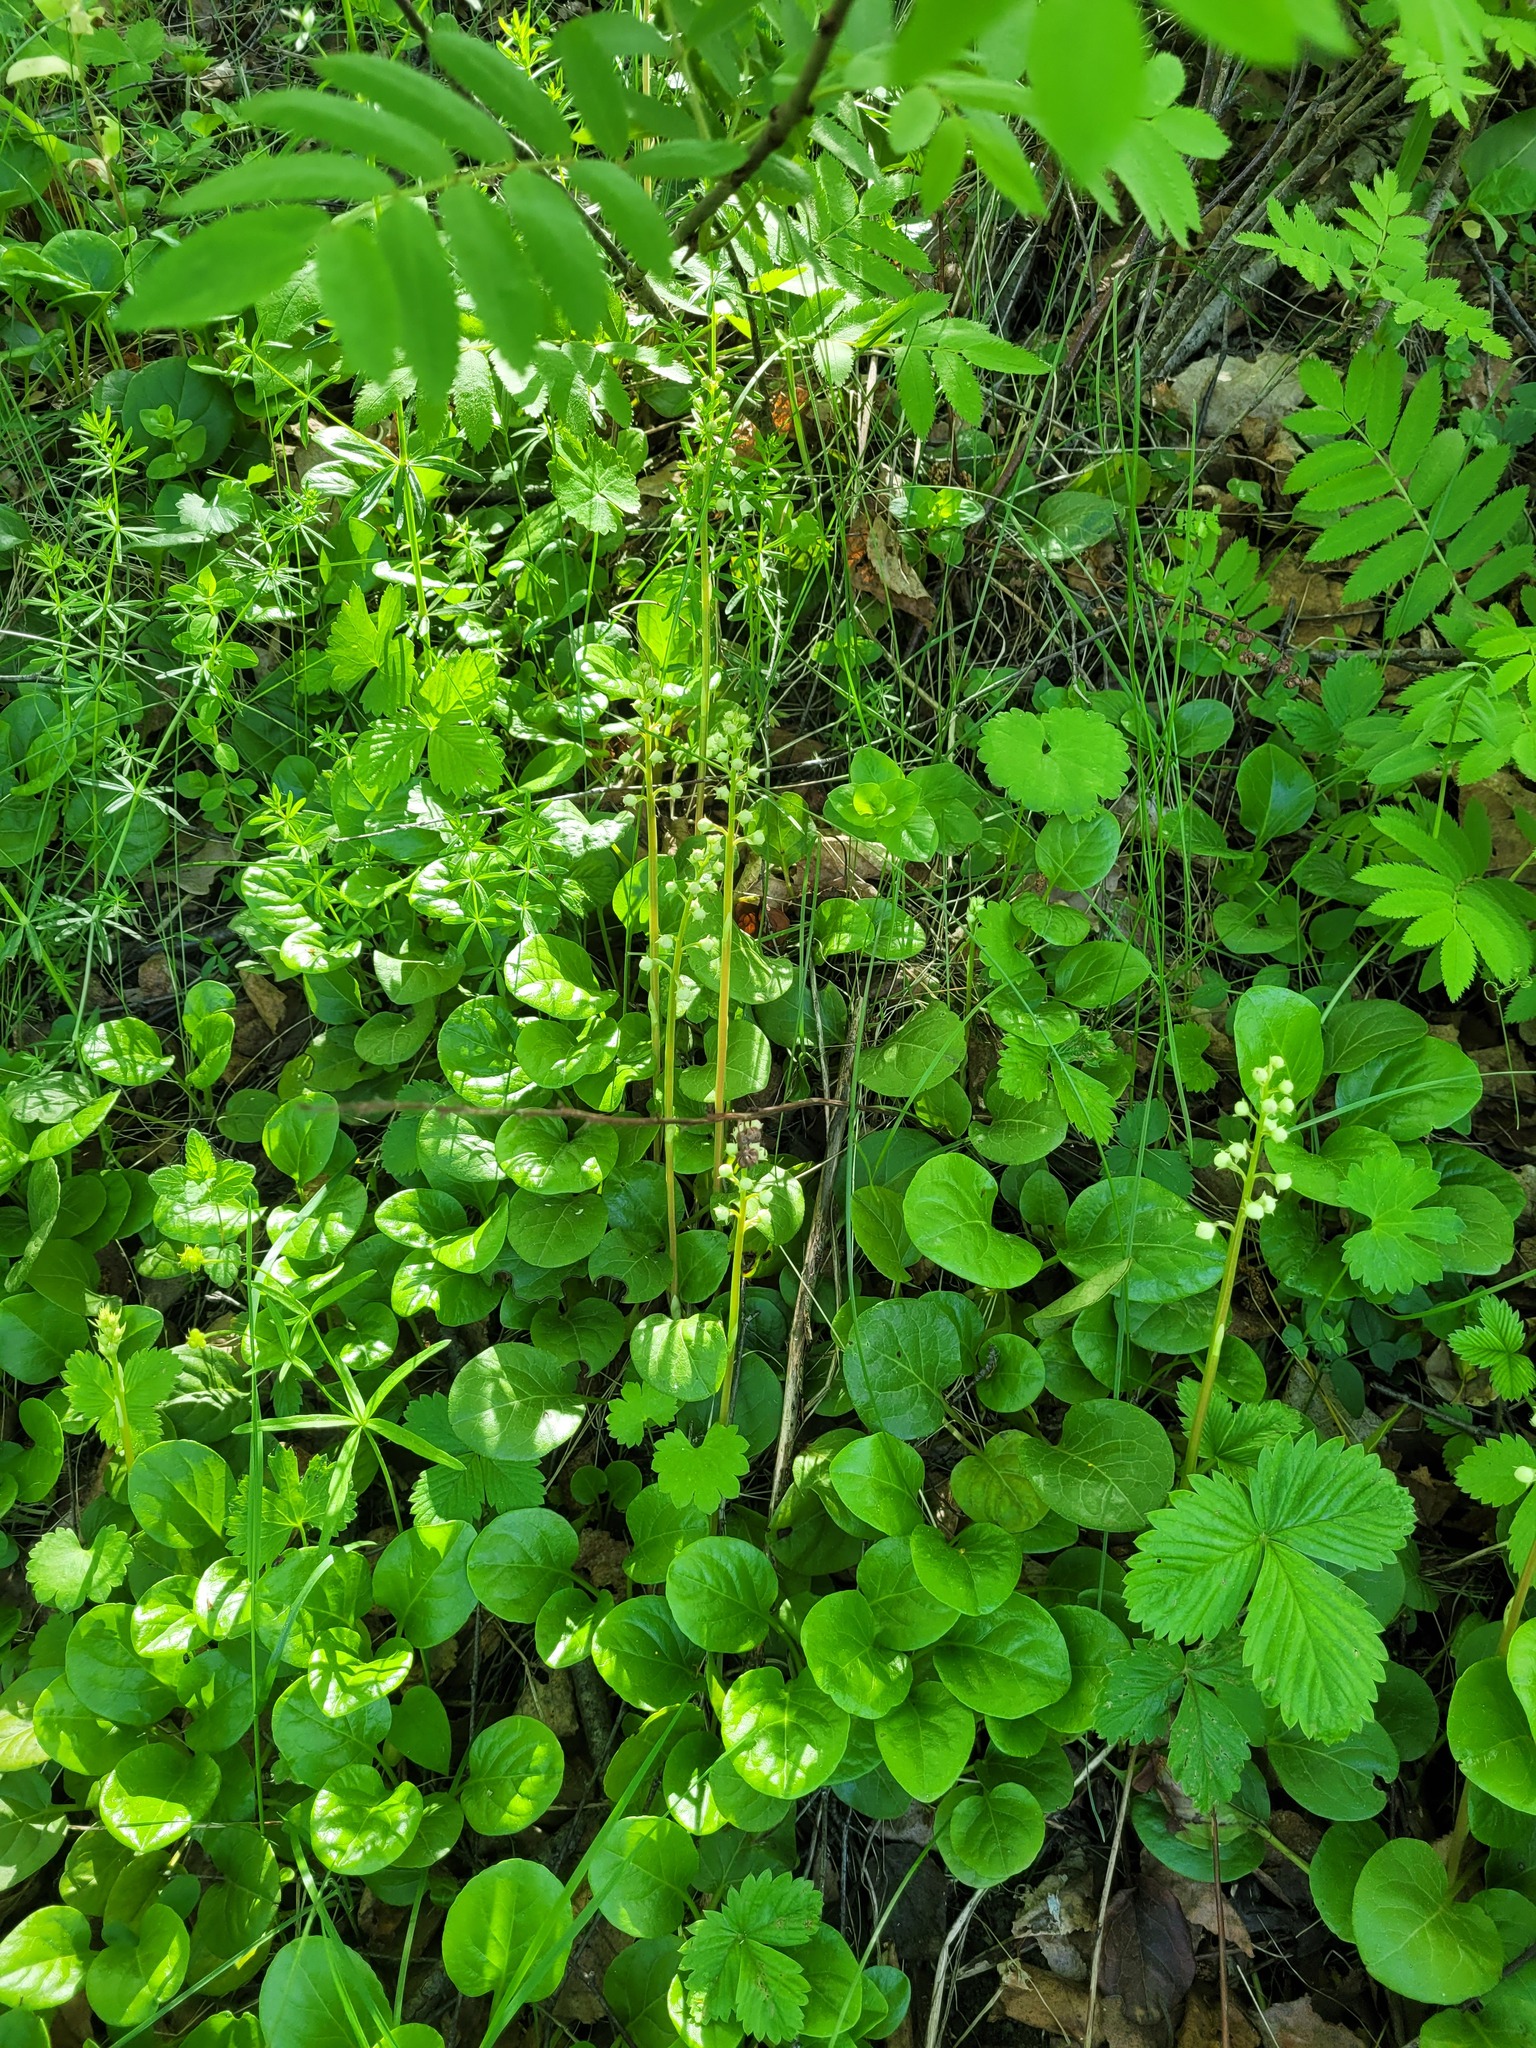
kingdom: Plantae
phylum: Tracheophyta
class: Magnoliopsida
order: Ericales
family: Ericaceae
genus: Pyrola
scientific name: Pyrola rotundifolia
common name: Round-leaved wintergreen
